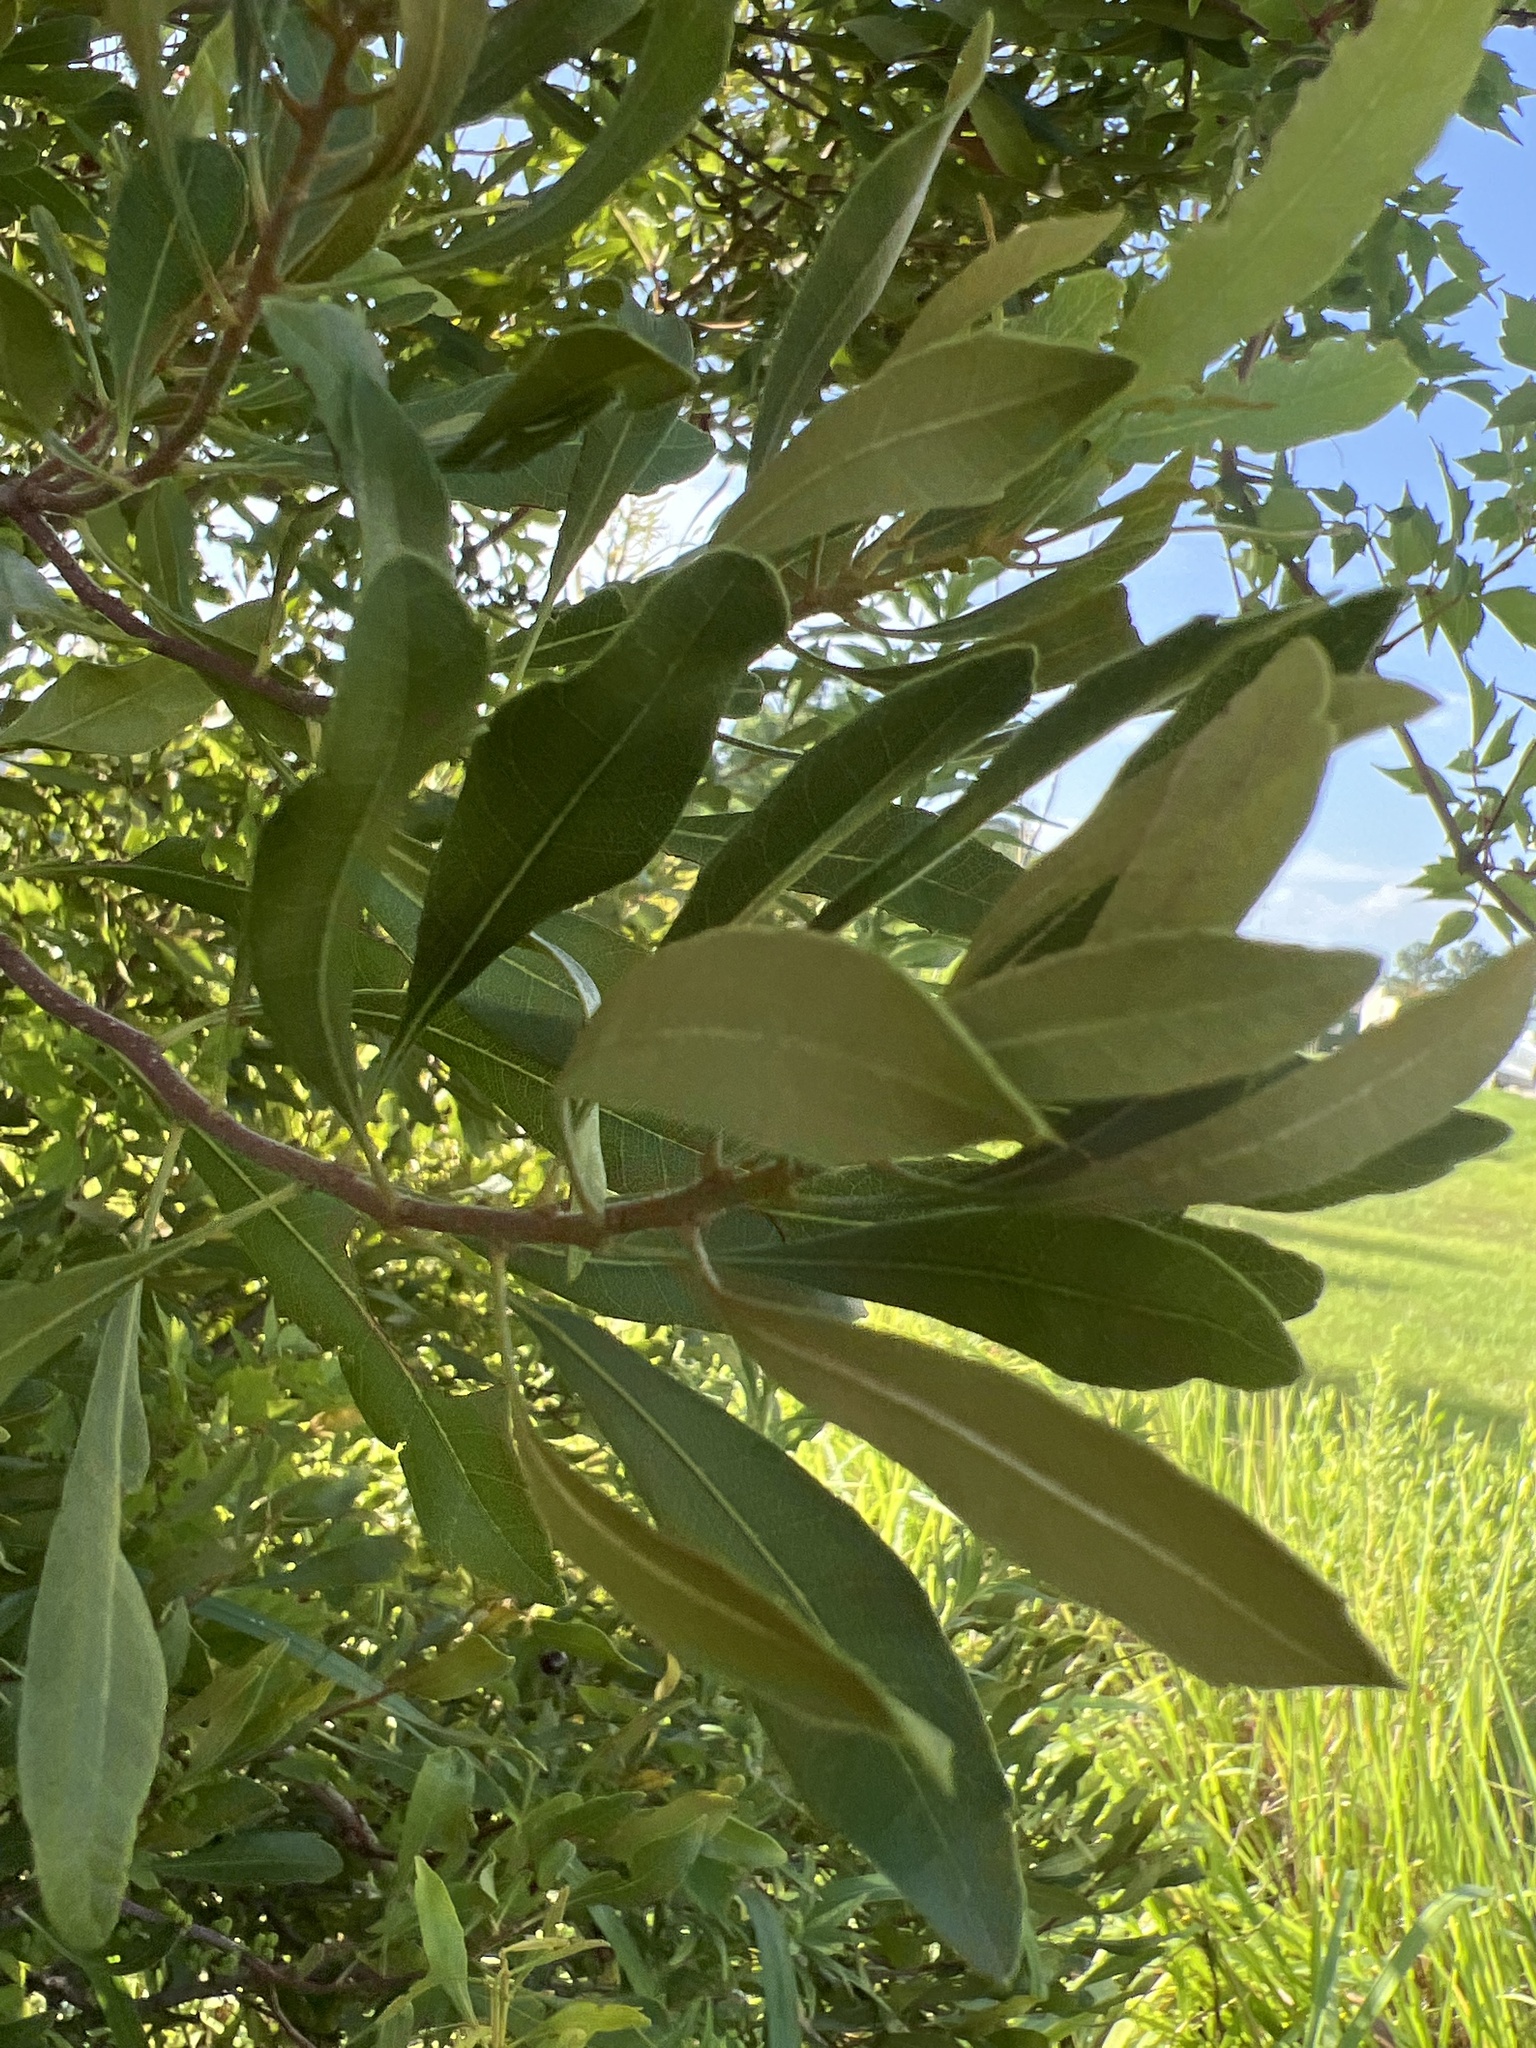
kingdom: Plantae
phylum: Tracheophyta
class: Magnoliopsida
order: Fagales
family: Myricaceae
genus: Morella
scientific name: Morella cerifera
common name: Wax myrtle
